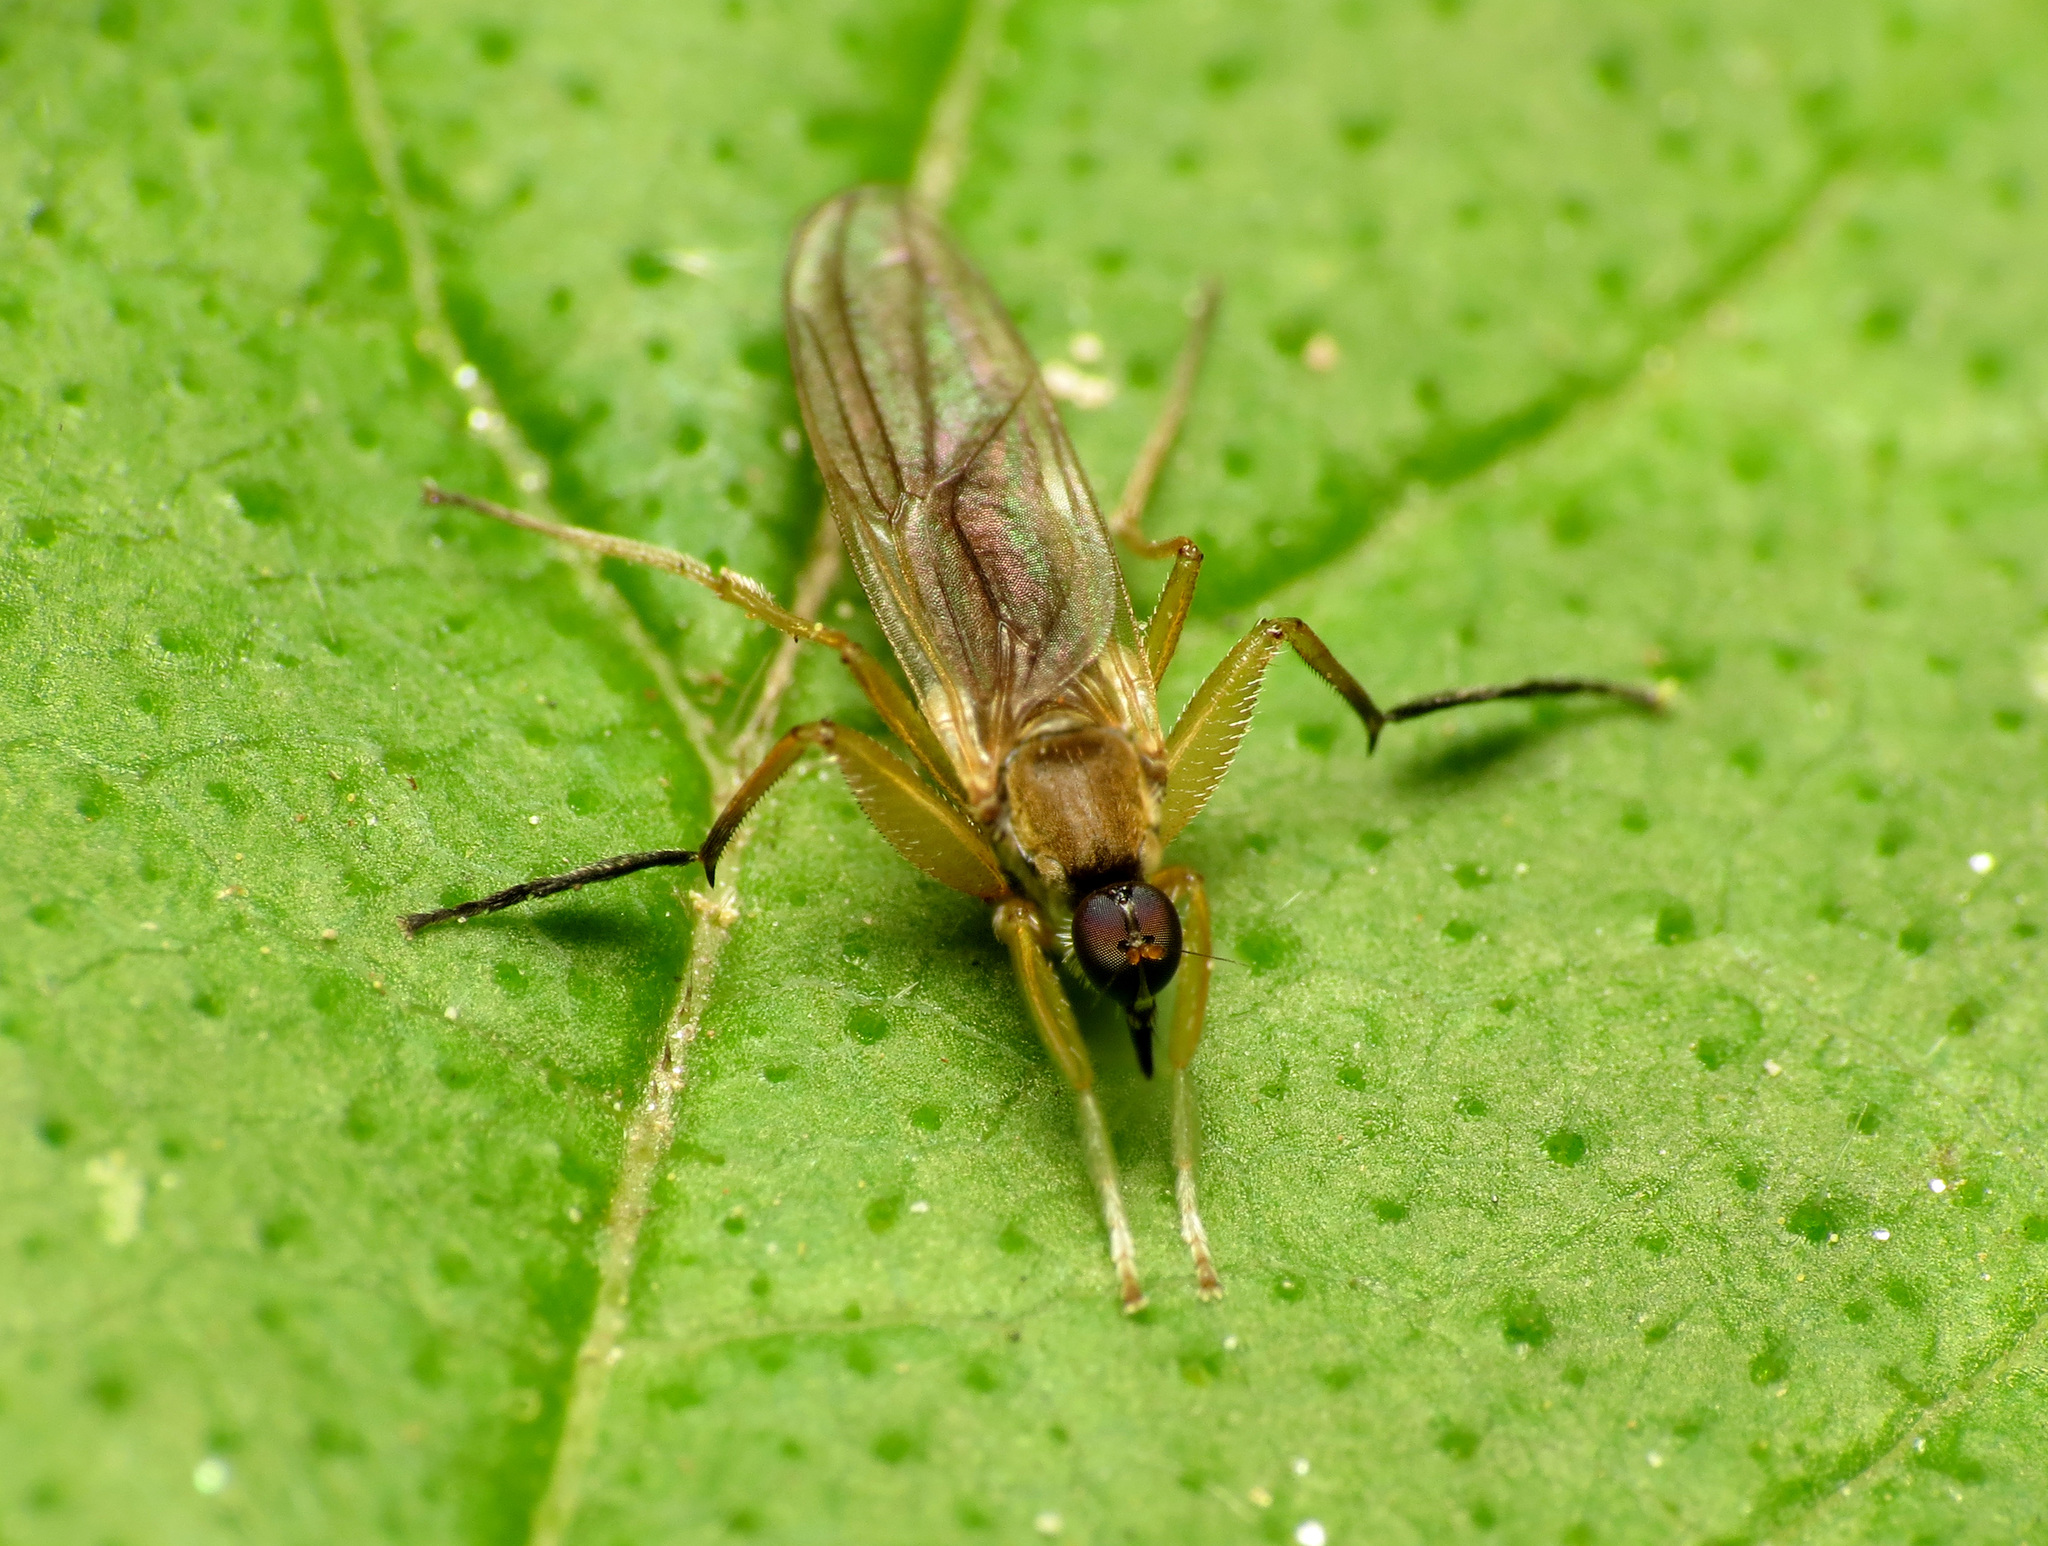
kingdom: Animalia
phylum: Arthropoda
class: Insecta
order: Diptera
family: Hybotidae
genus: Platypalpus
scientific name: Platypalpus discifer
